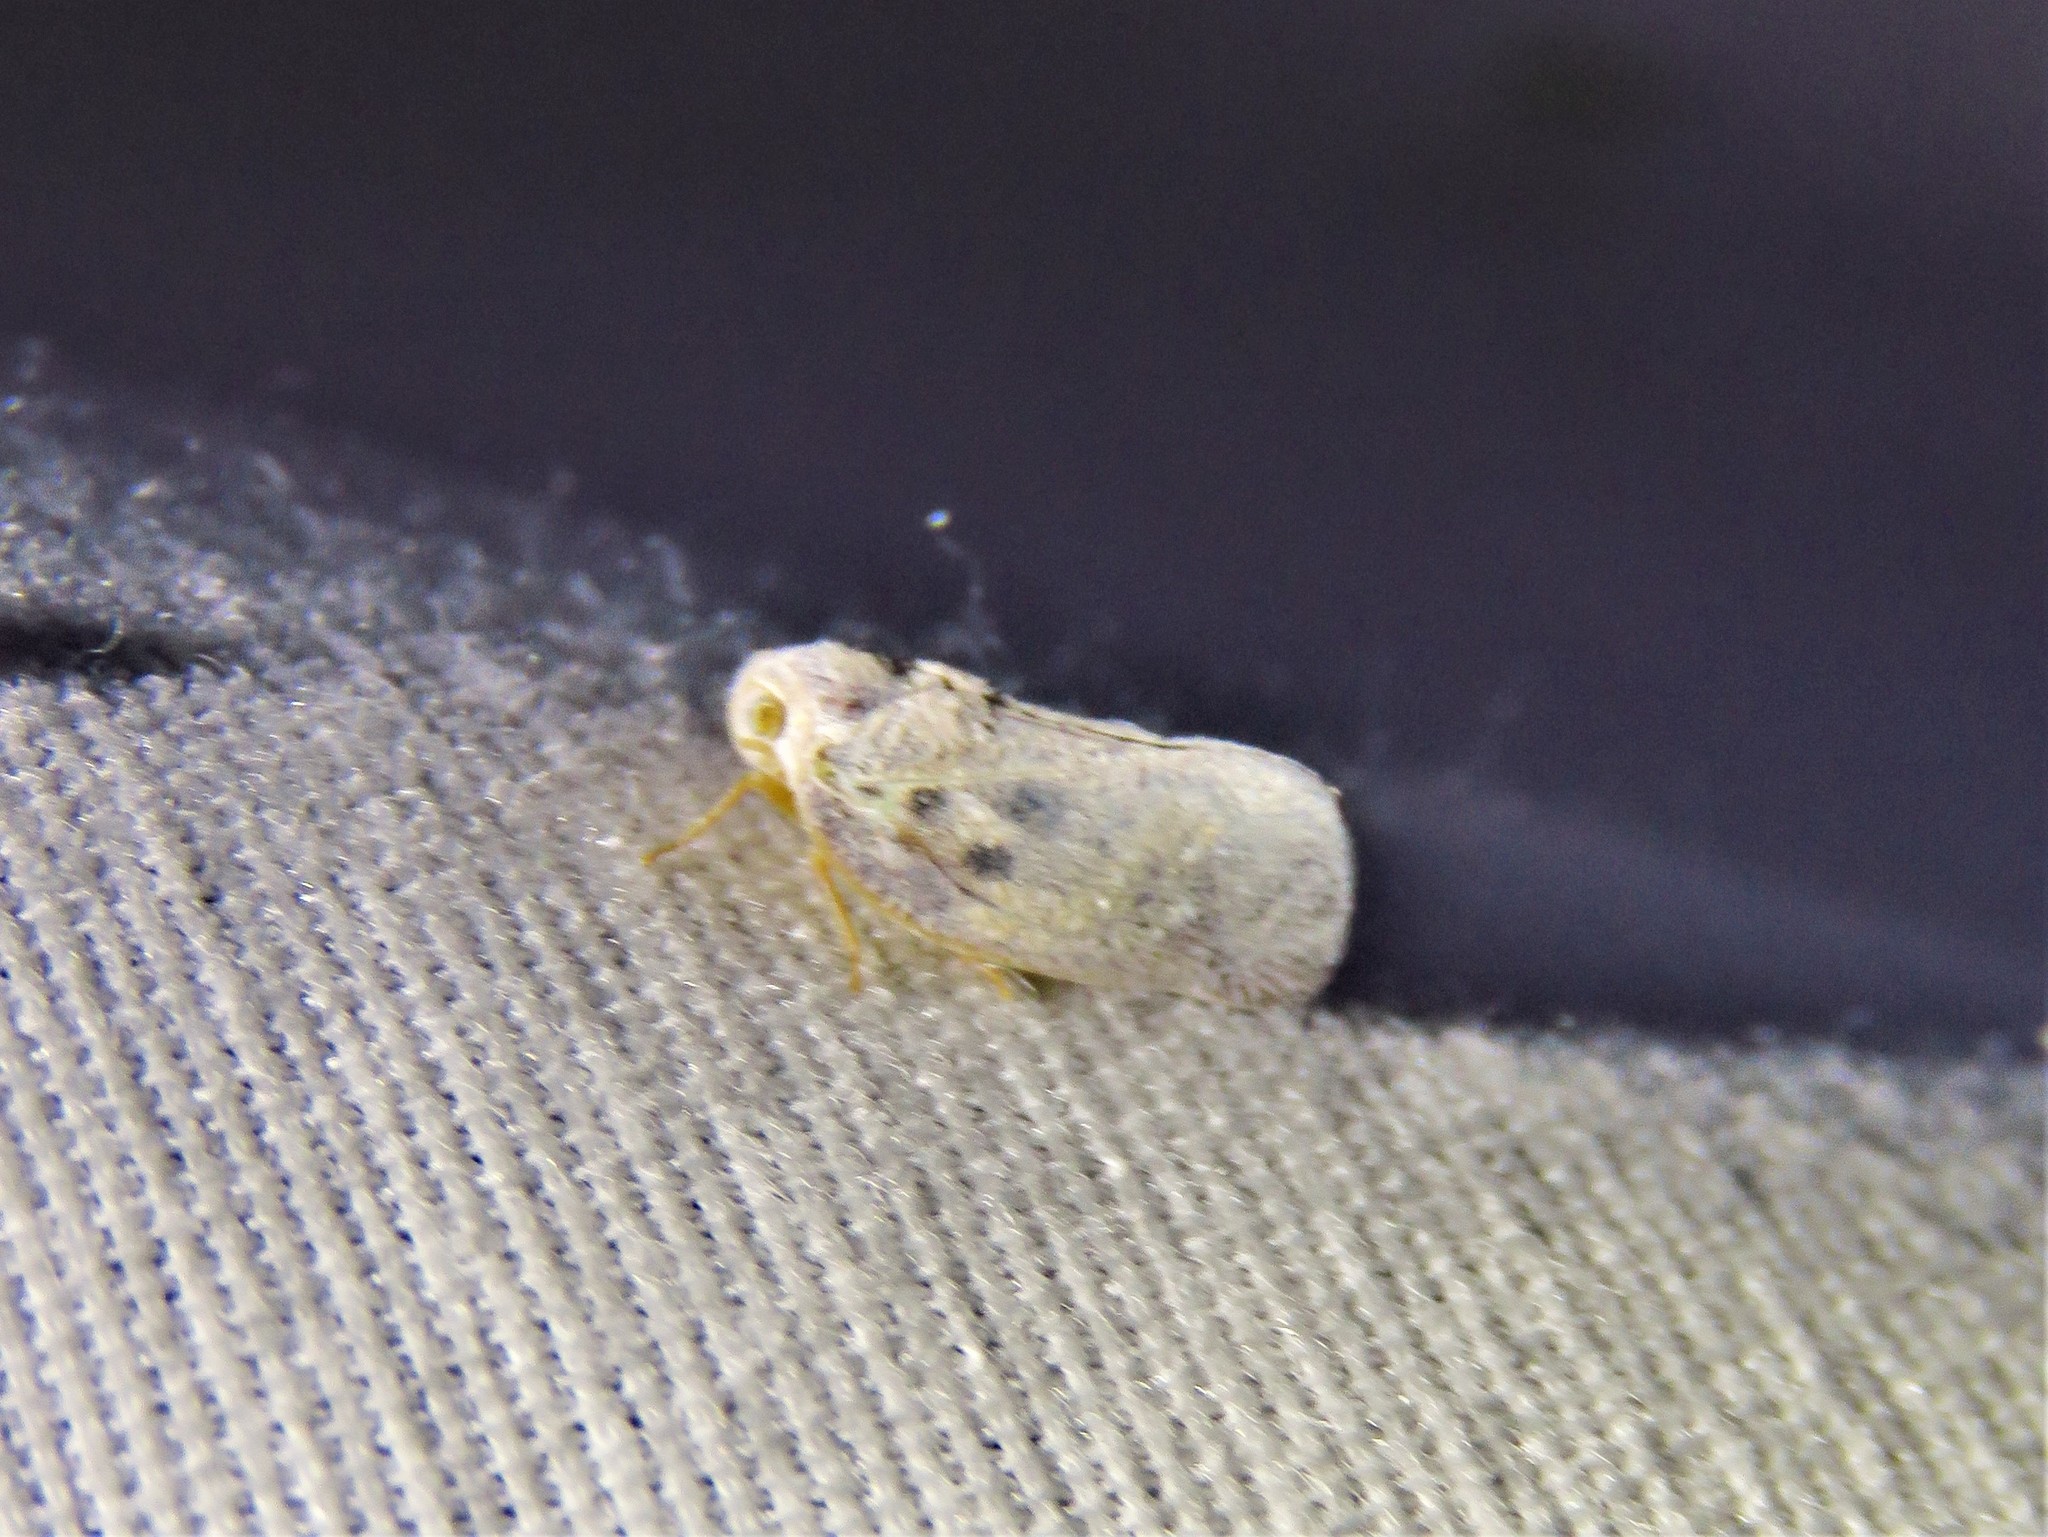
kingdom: Animalia
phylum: Arthropoda
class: Insecta
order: Hemiptera
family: Flatidae
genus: Metcalfa
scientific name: Metcalfa pruinosa
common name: Citrus flatid planthopper
